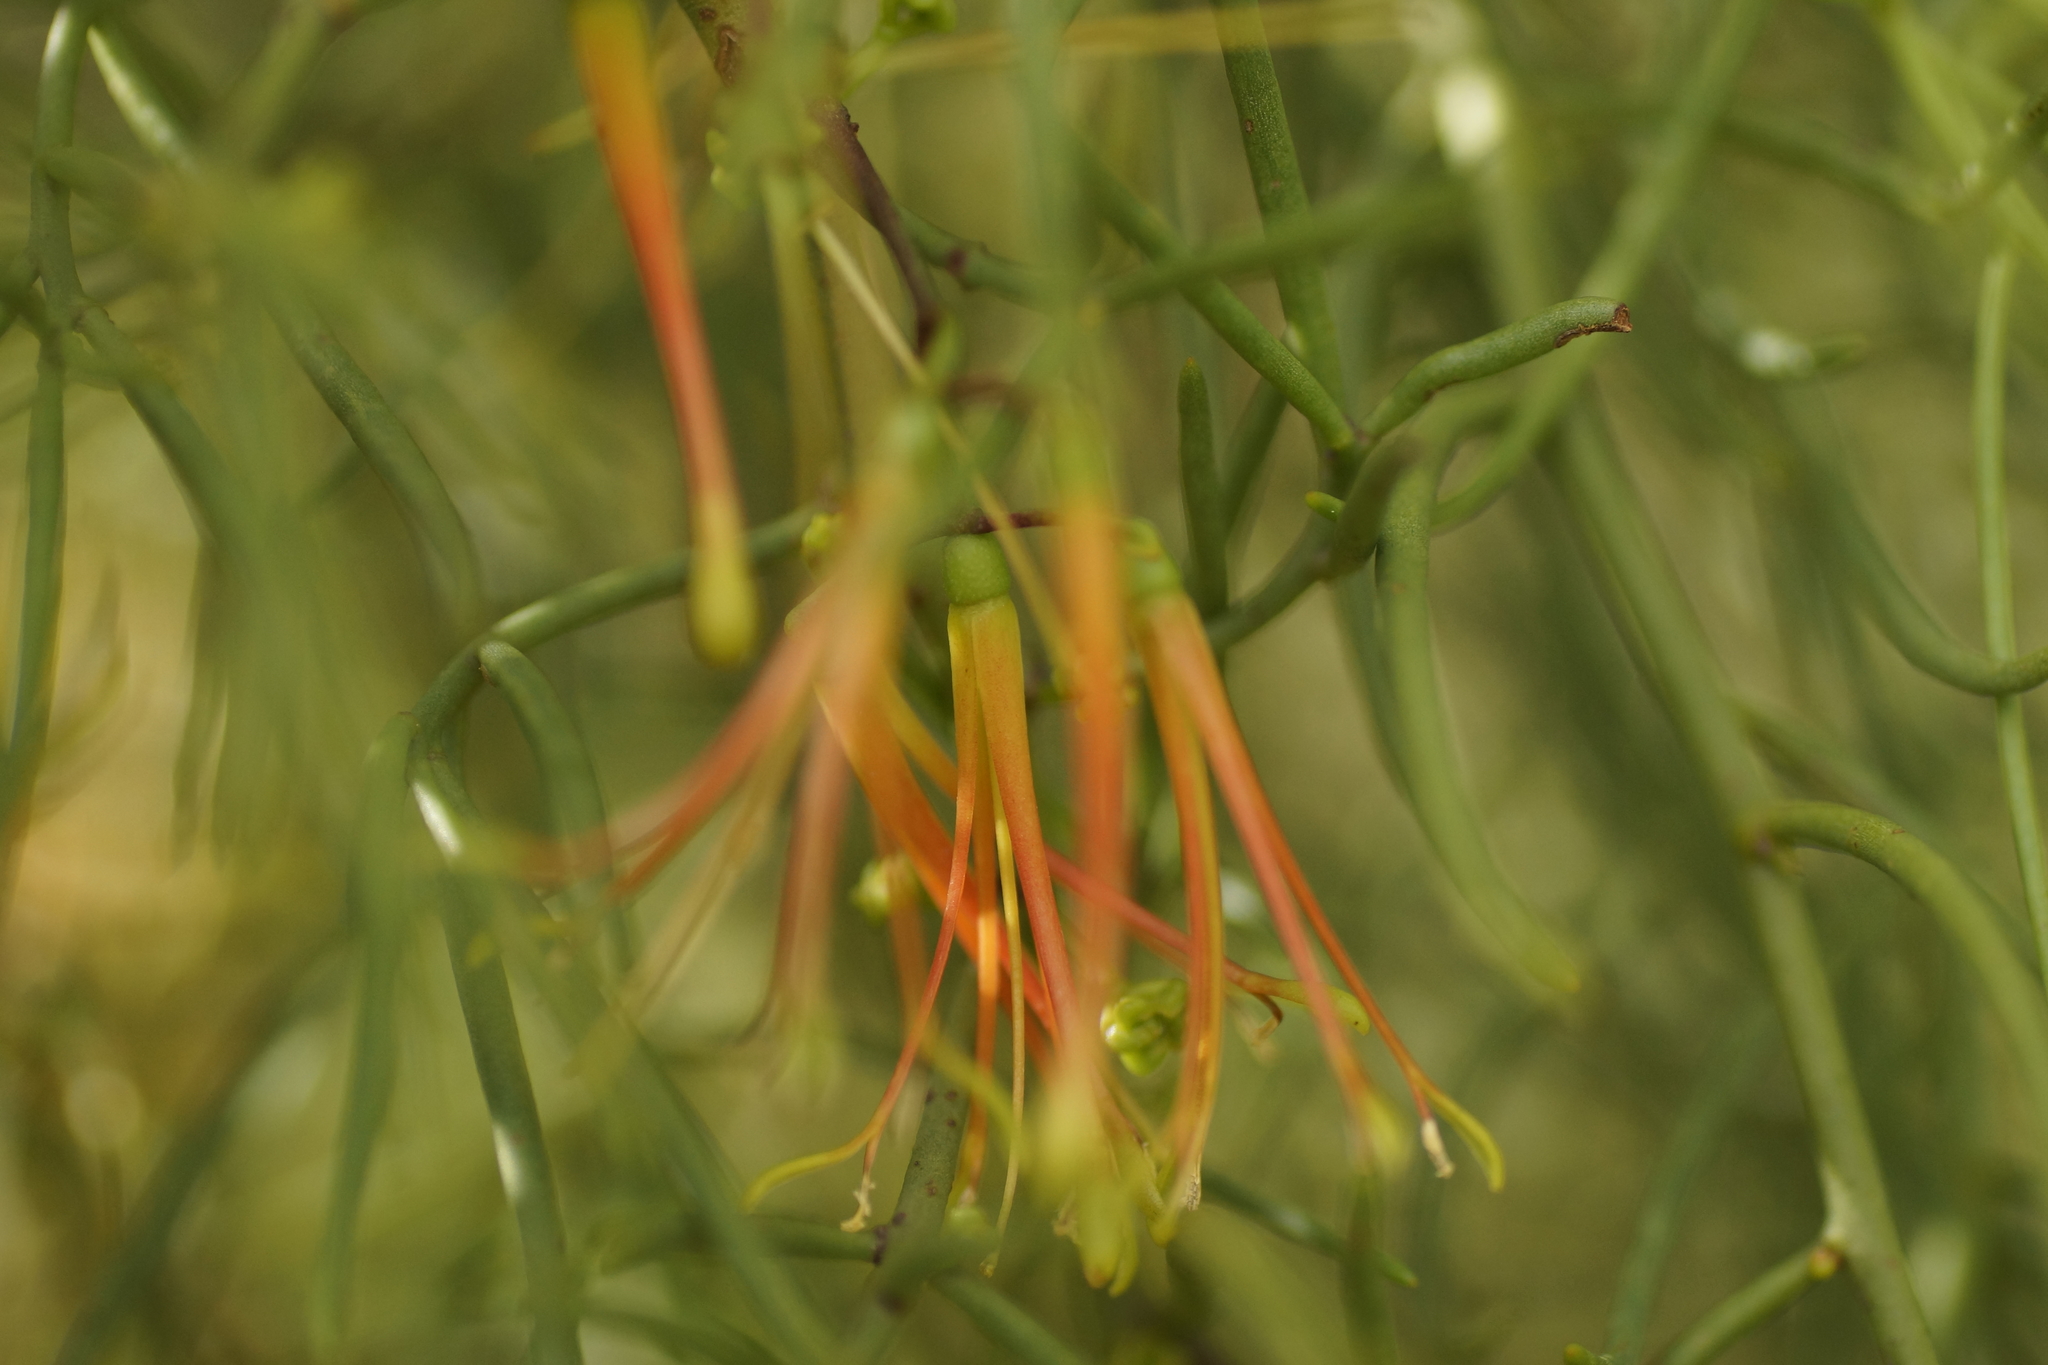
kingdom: Plantae
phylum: Tracheophyta
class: Magnoliopsida
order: Santalales
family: Loranthaceae
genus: Amyema
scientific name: Amyema preissii
